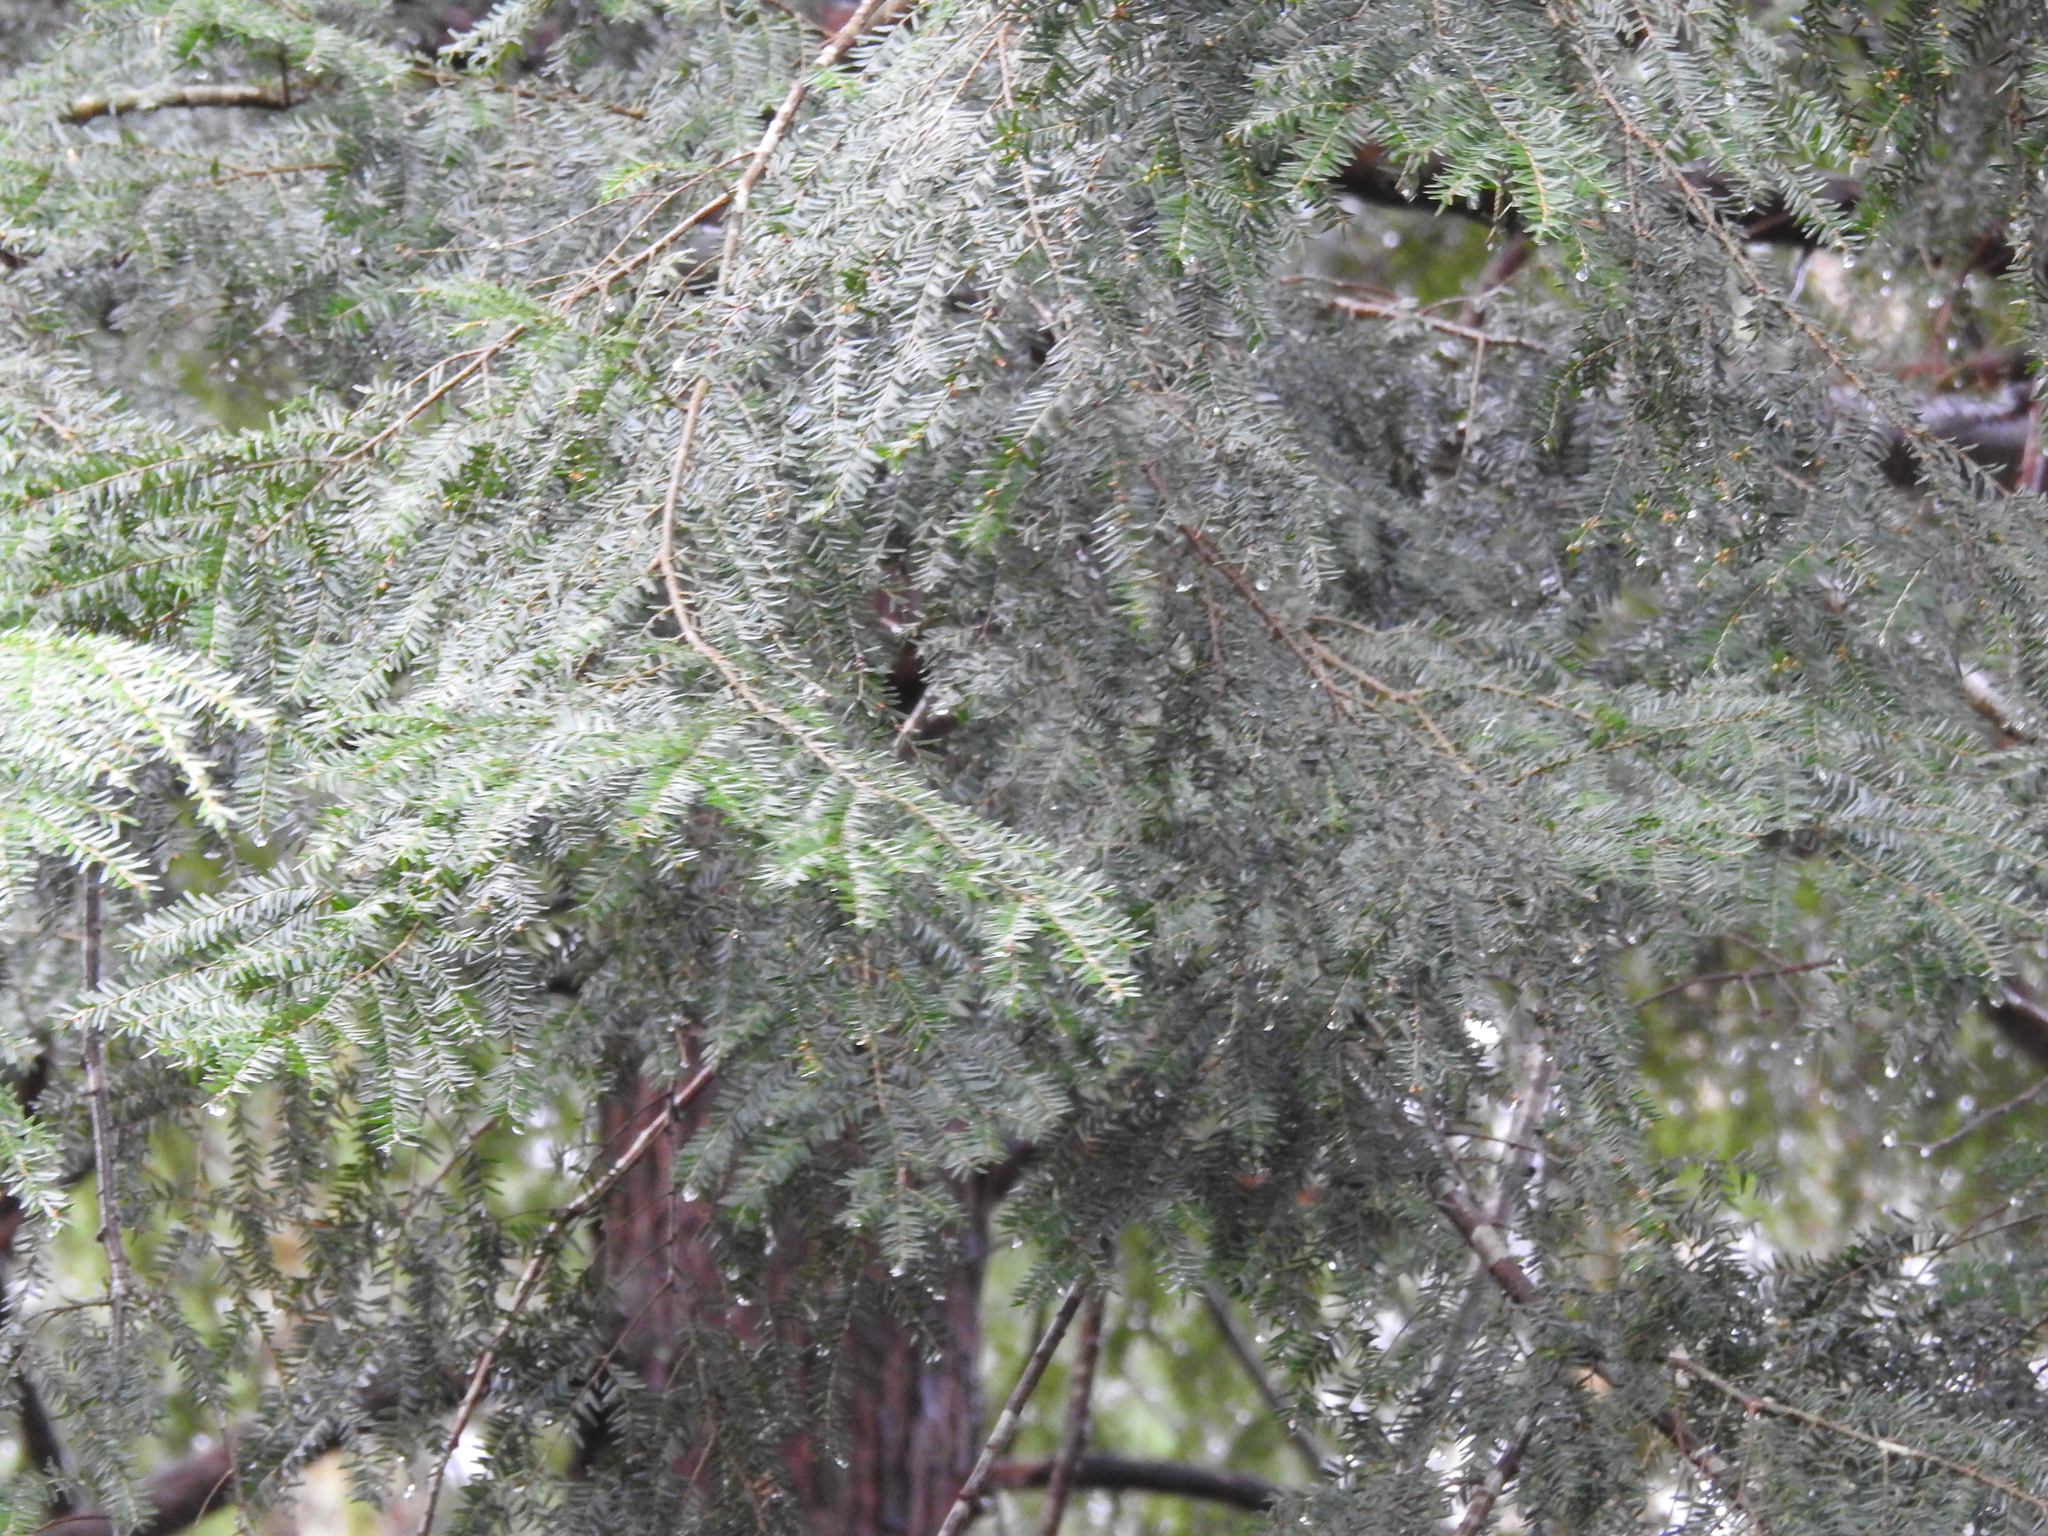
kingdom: Plantae
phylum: Tracheophyta
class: Pinopsida
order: Pinales
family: Pinaceae
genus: Tsuga
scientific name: Tsuga canadensis
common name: Eastern hemlock
